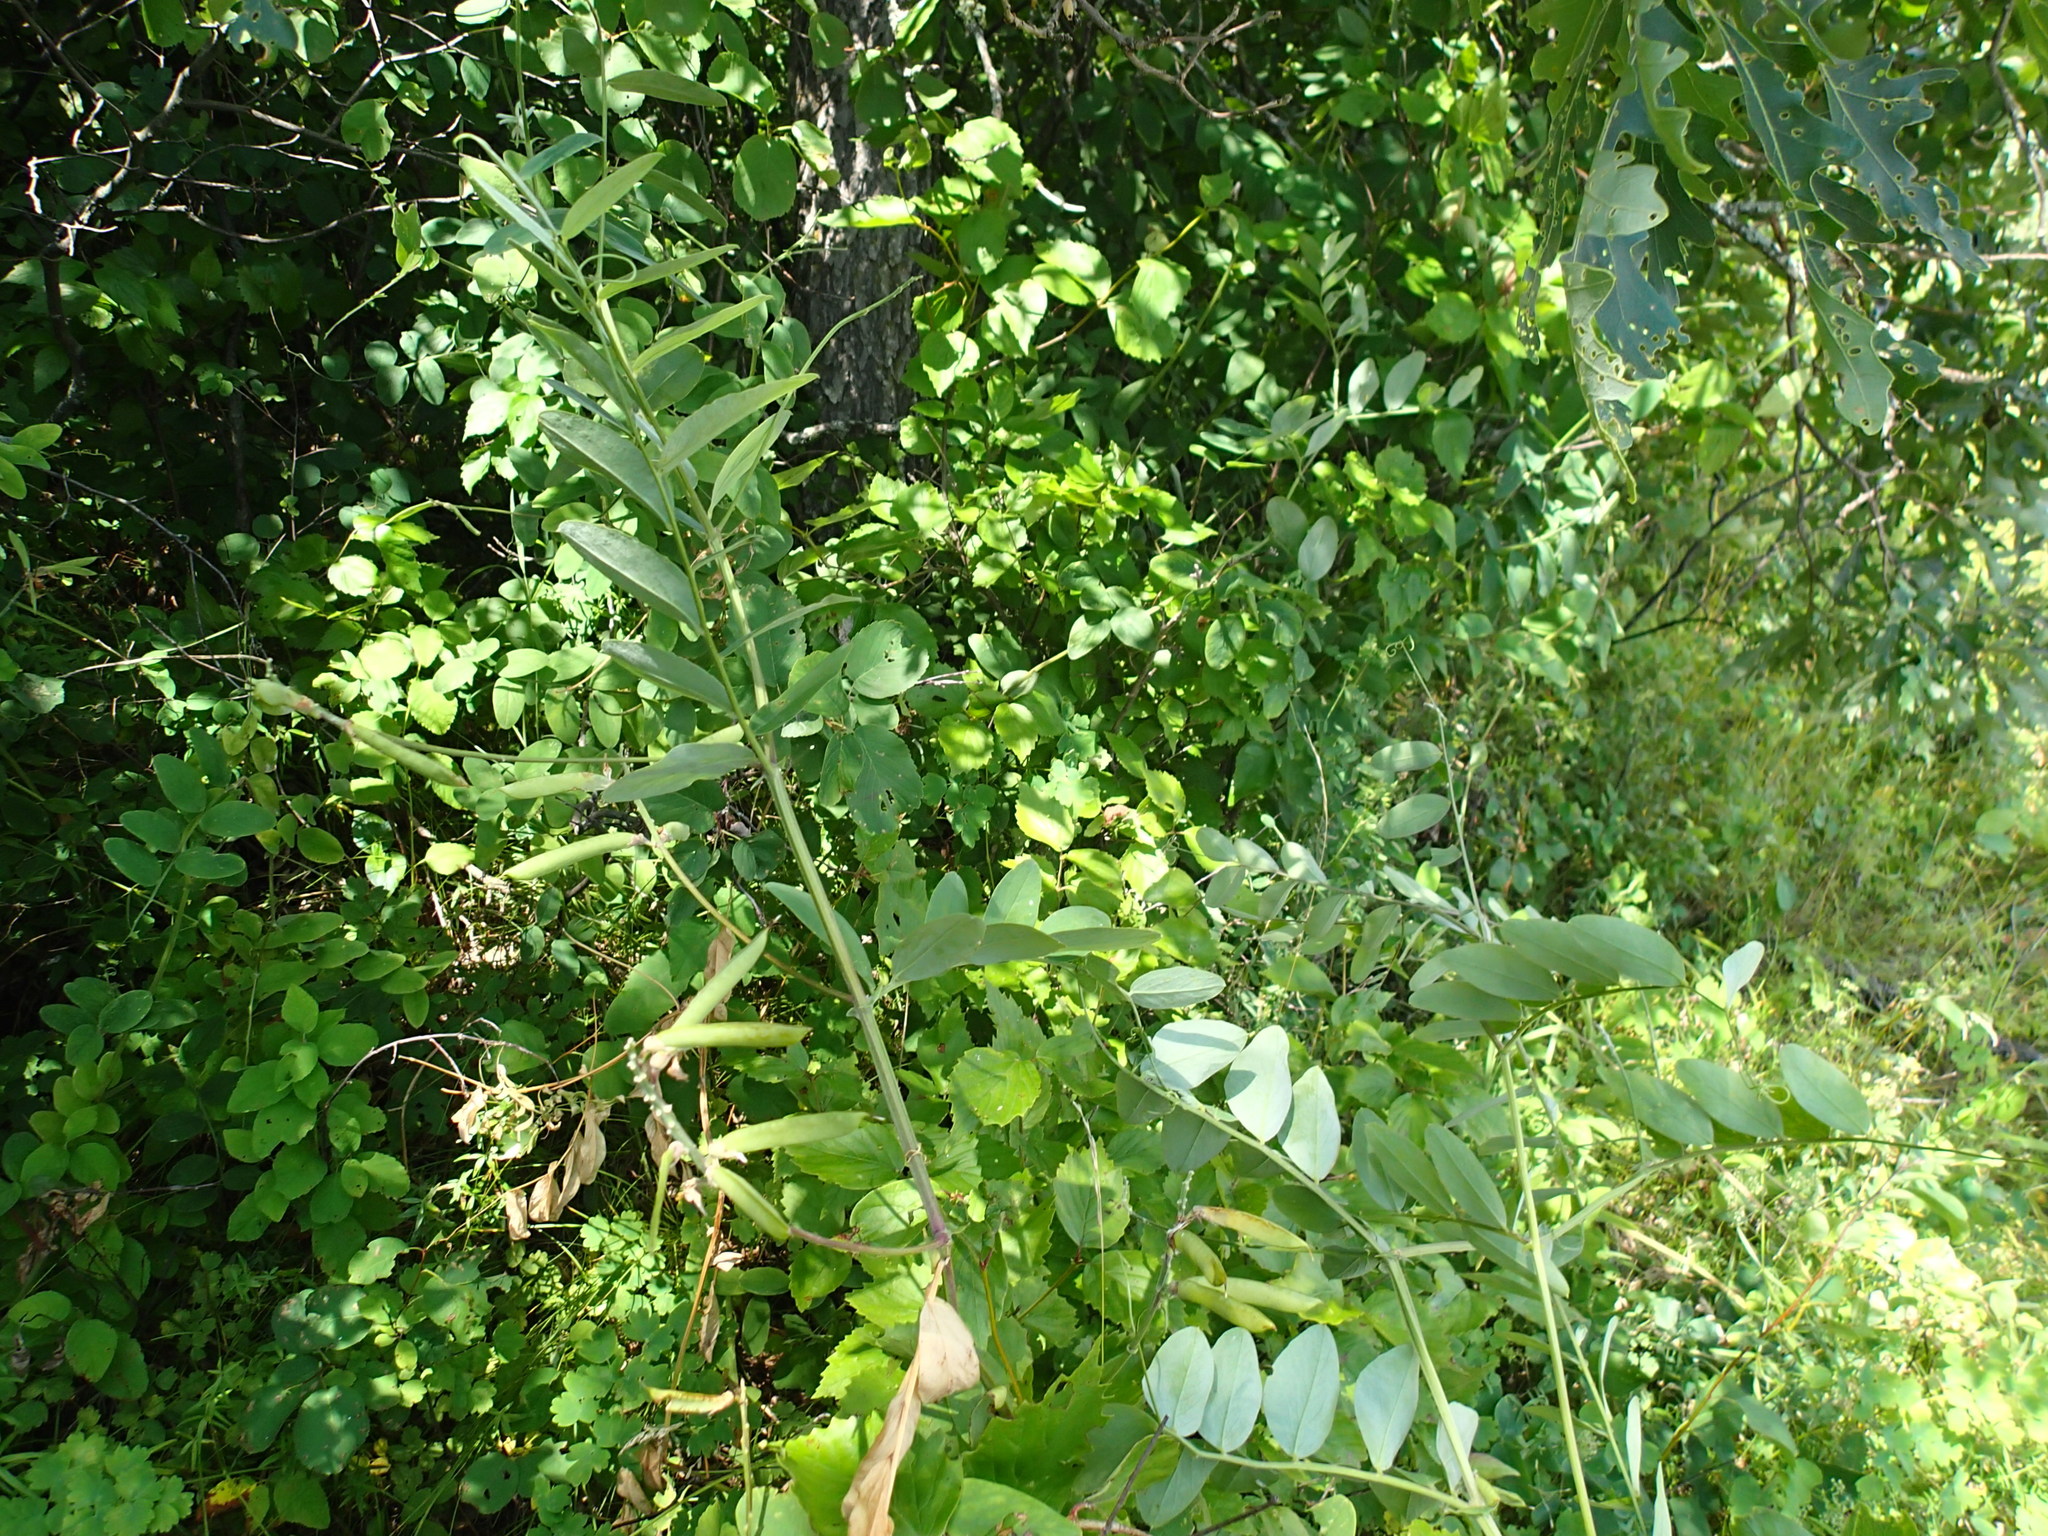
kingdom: Plantae
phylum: Tracheophyta
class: Magnoliopsida
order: Fabales
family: Fabaceae
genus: Lathyrus
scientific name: Lathyrus venosus
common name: Forest-pea
